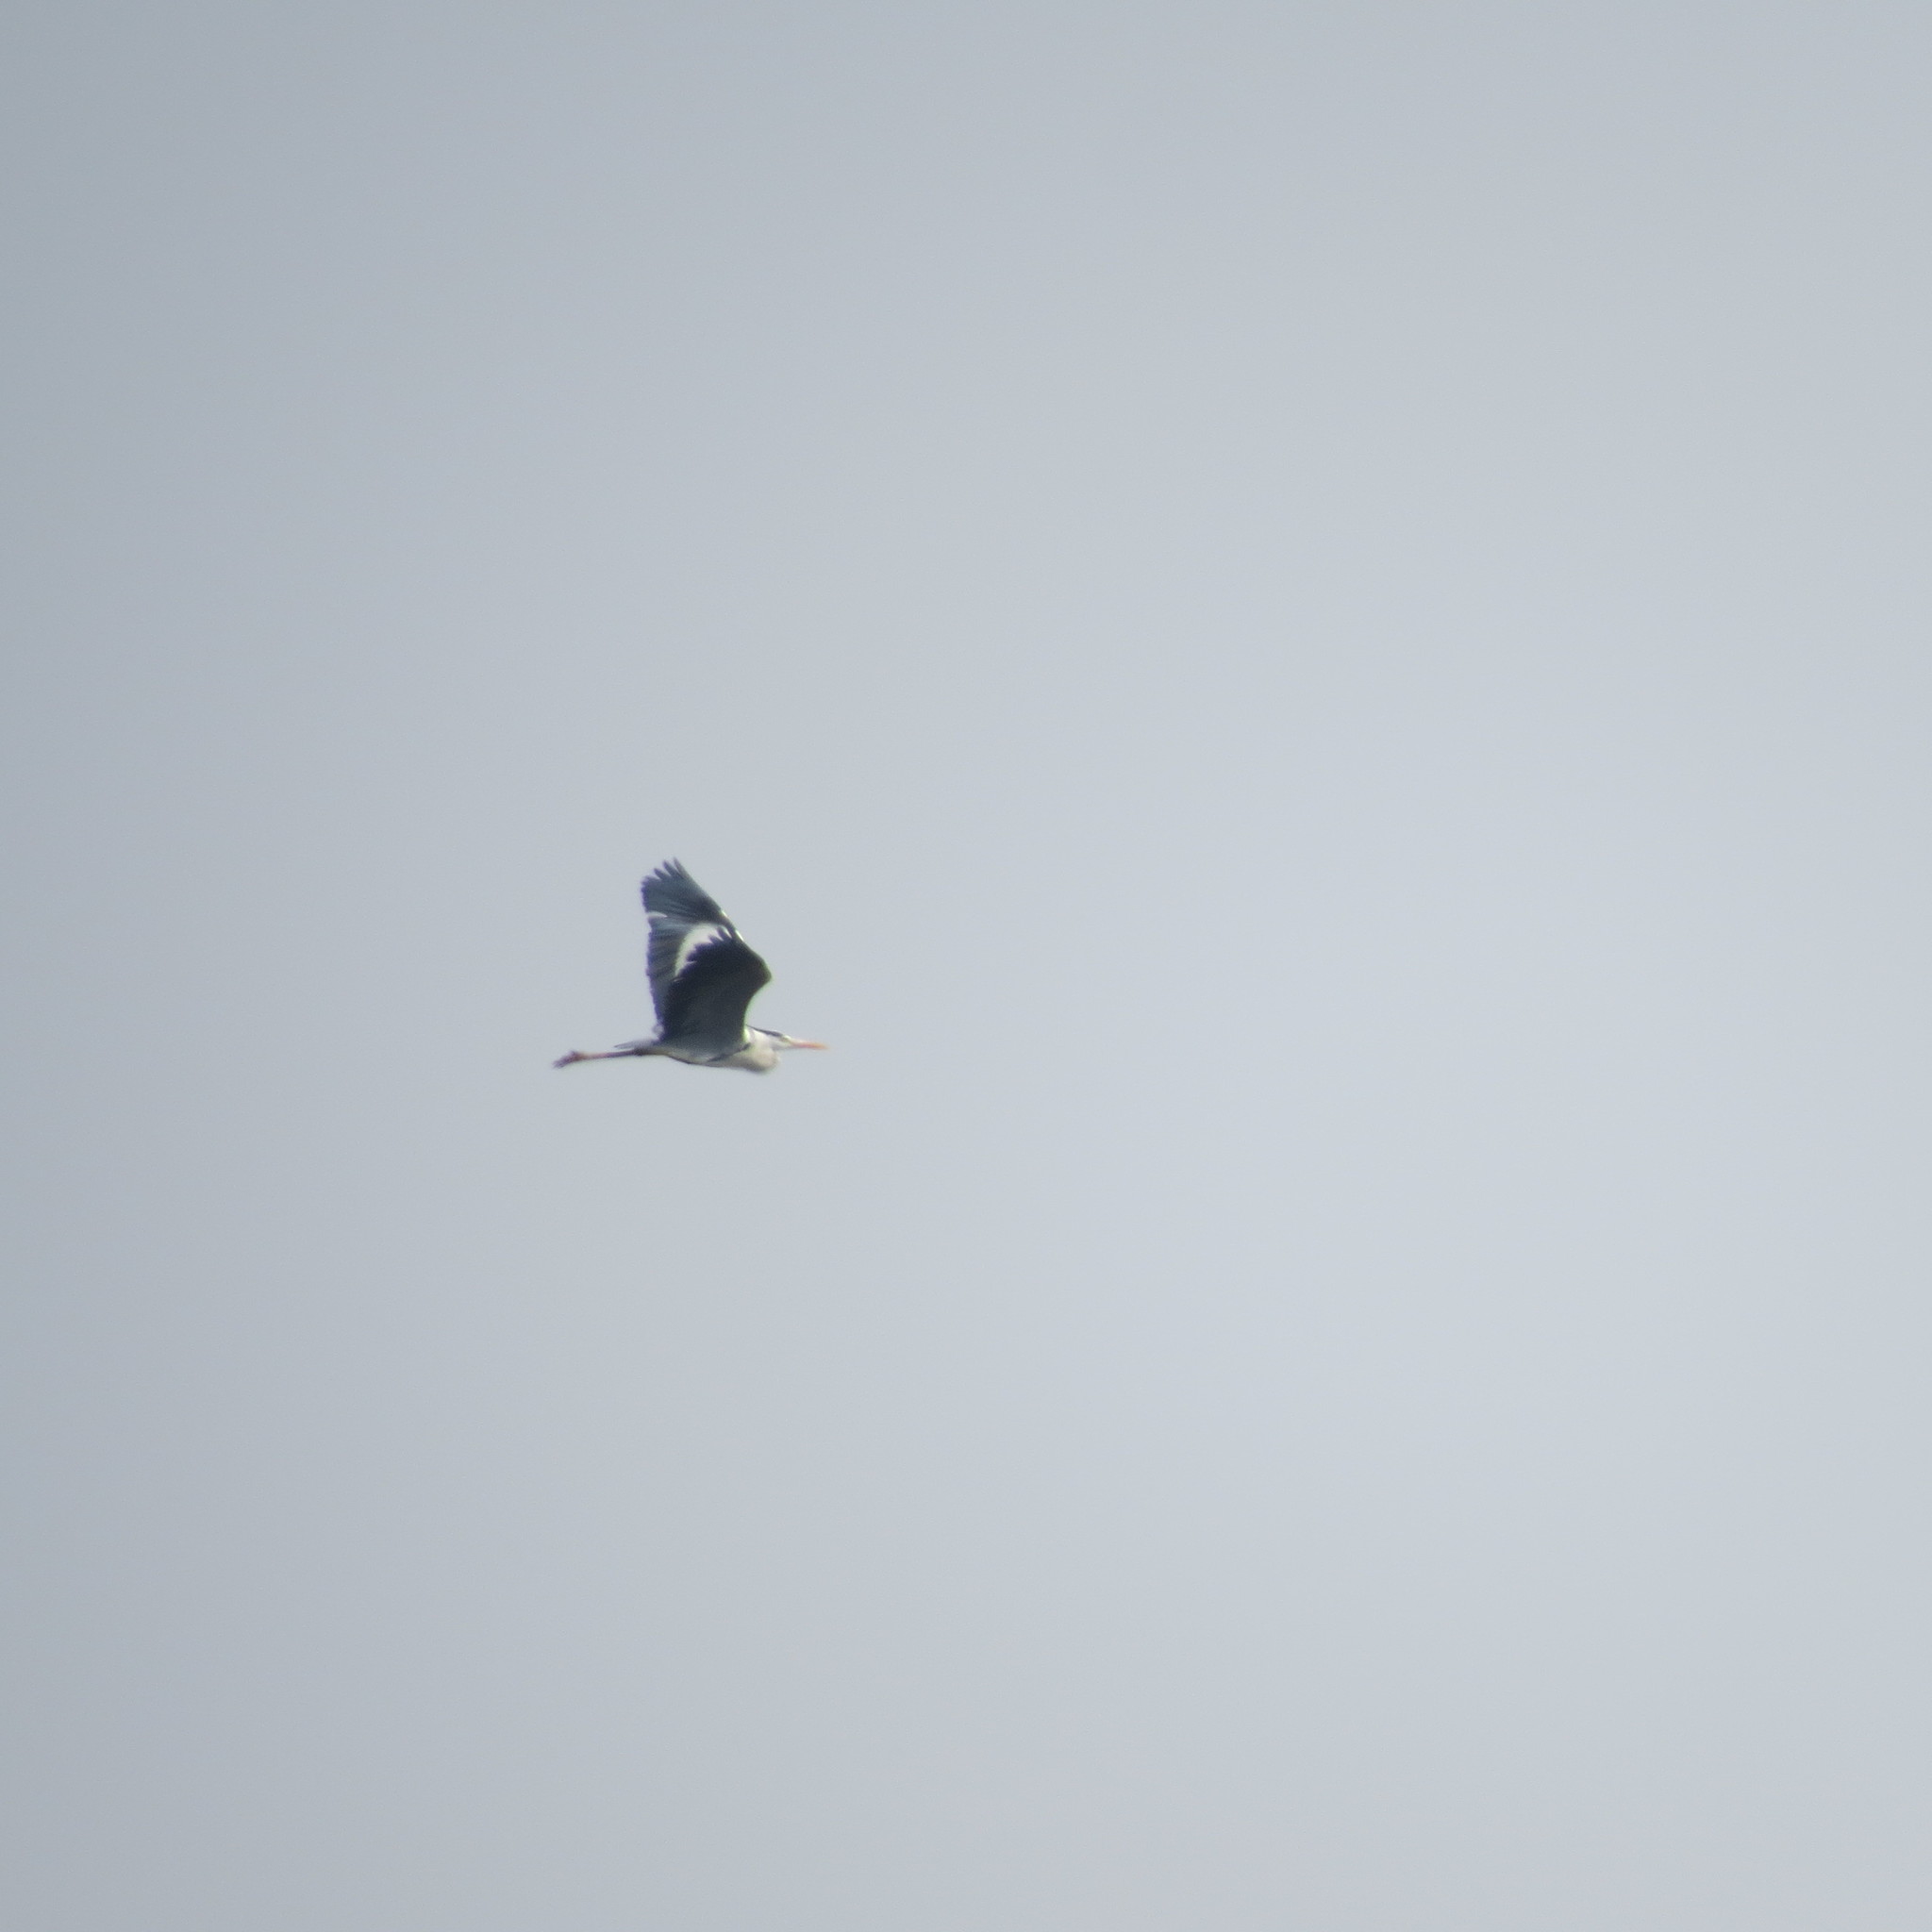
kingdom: Animalia
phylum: Chordata
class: Aves
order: Pelecaniformes
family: Ardeidae
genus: Ardea
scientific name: Ardea cinerea
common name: Grey heron
